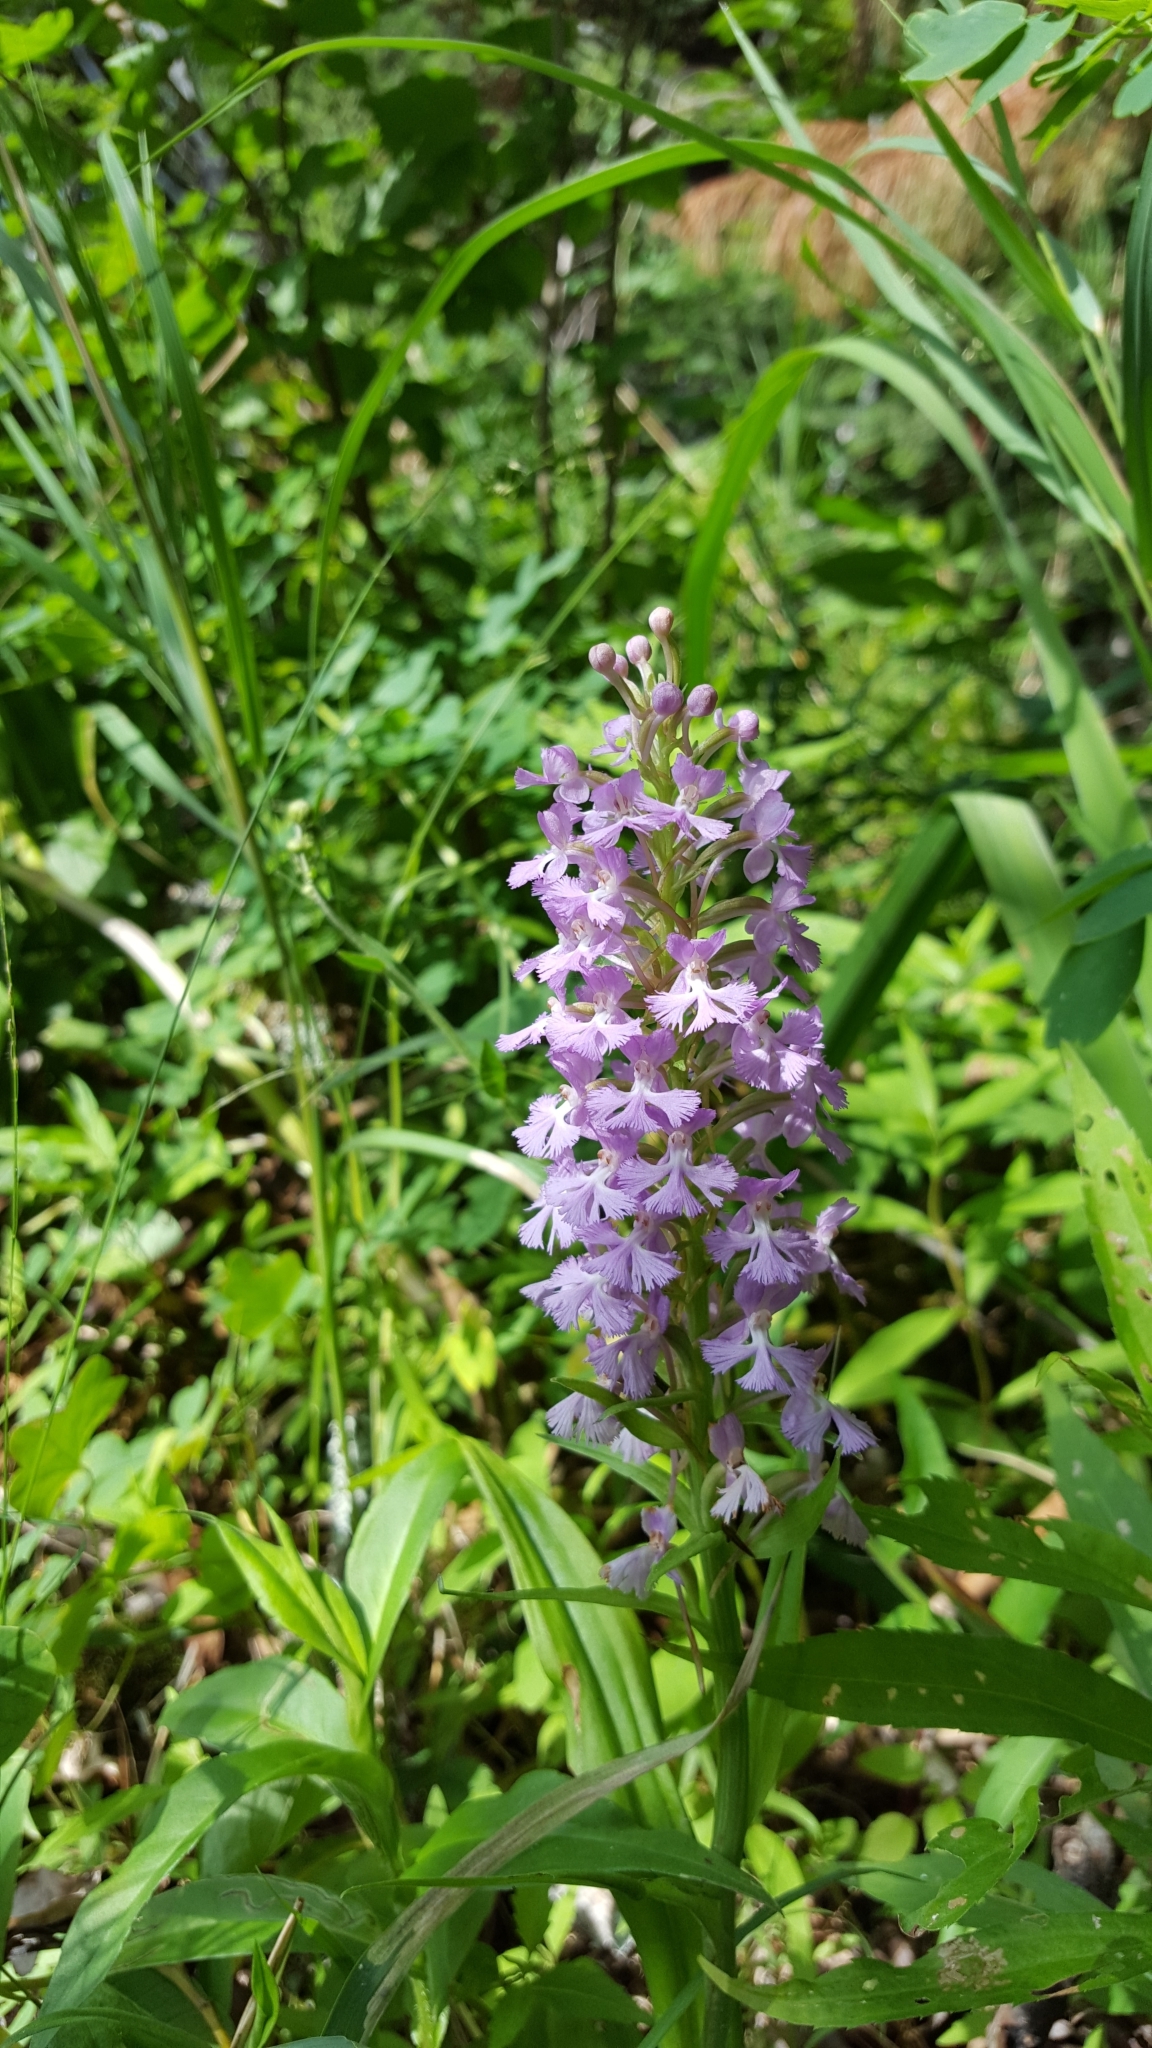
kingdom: Plantae
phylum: Tracheophyta
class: Liliopsida
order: Asparagales
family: Orchidaceae
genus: Platanthera
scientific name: Platanthera psycodes
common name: Lesser purple fringed orchid
